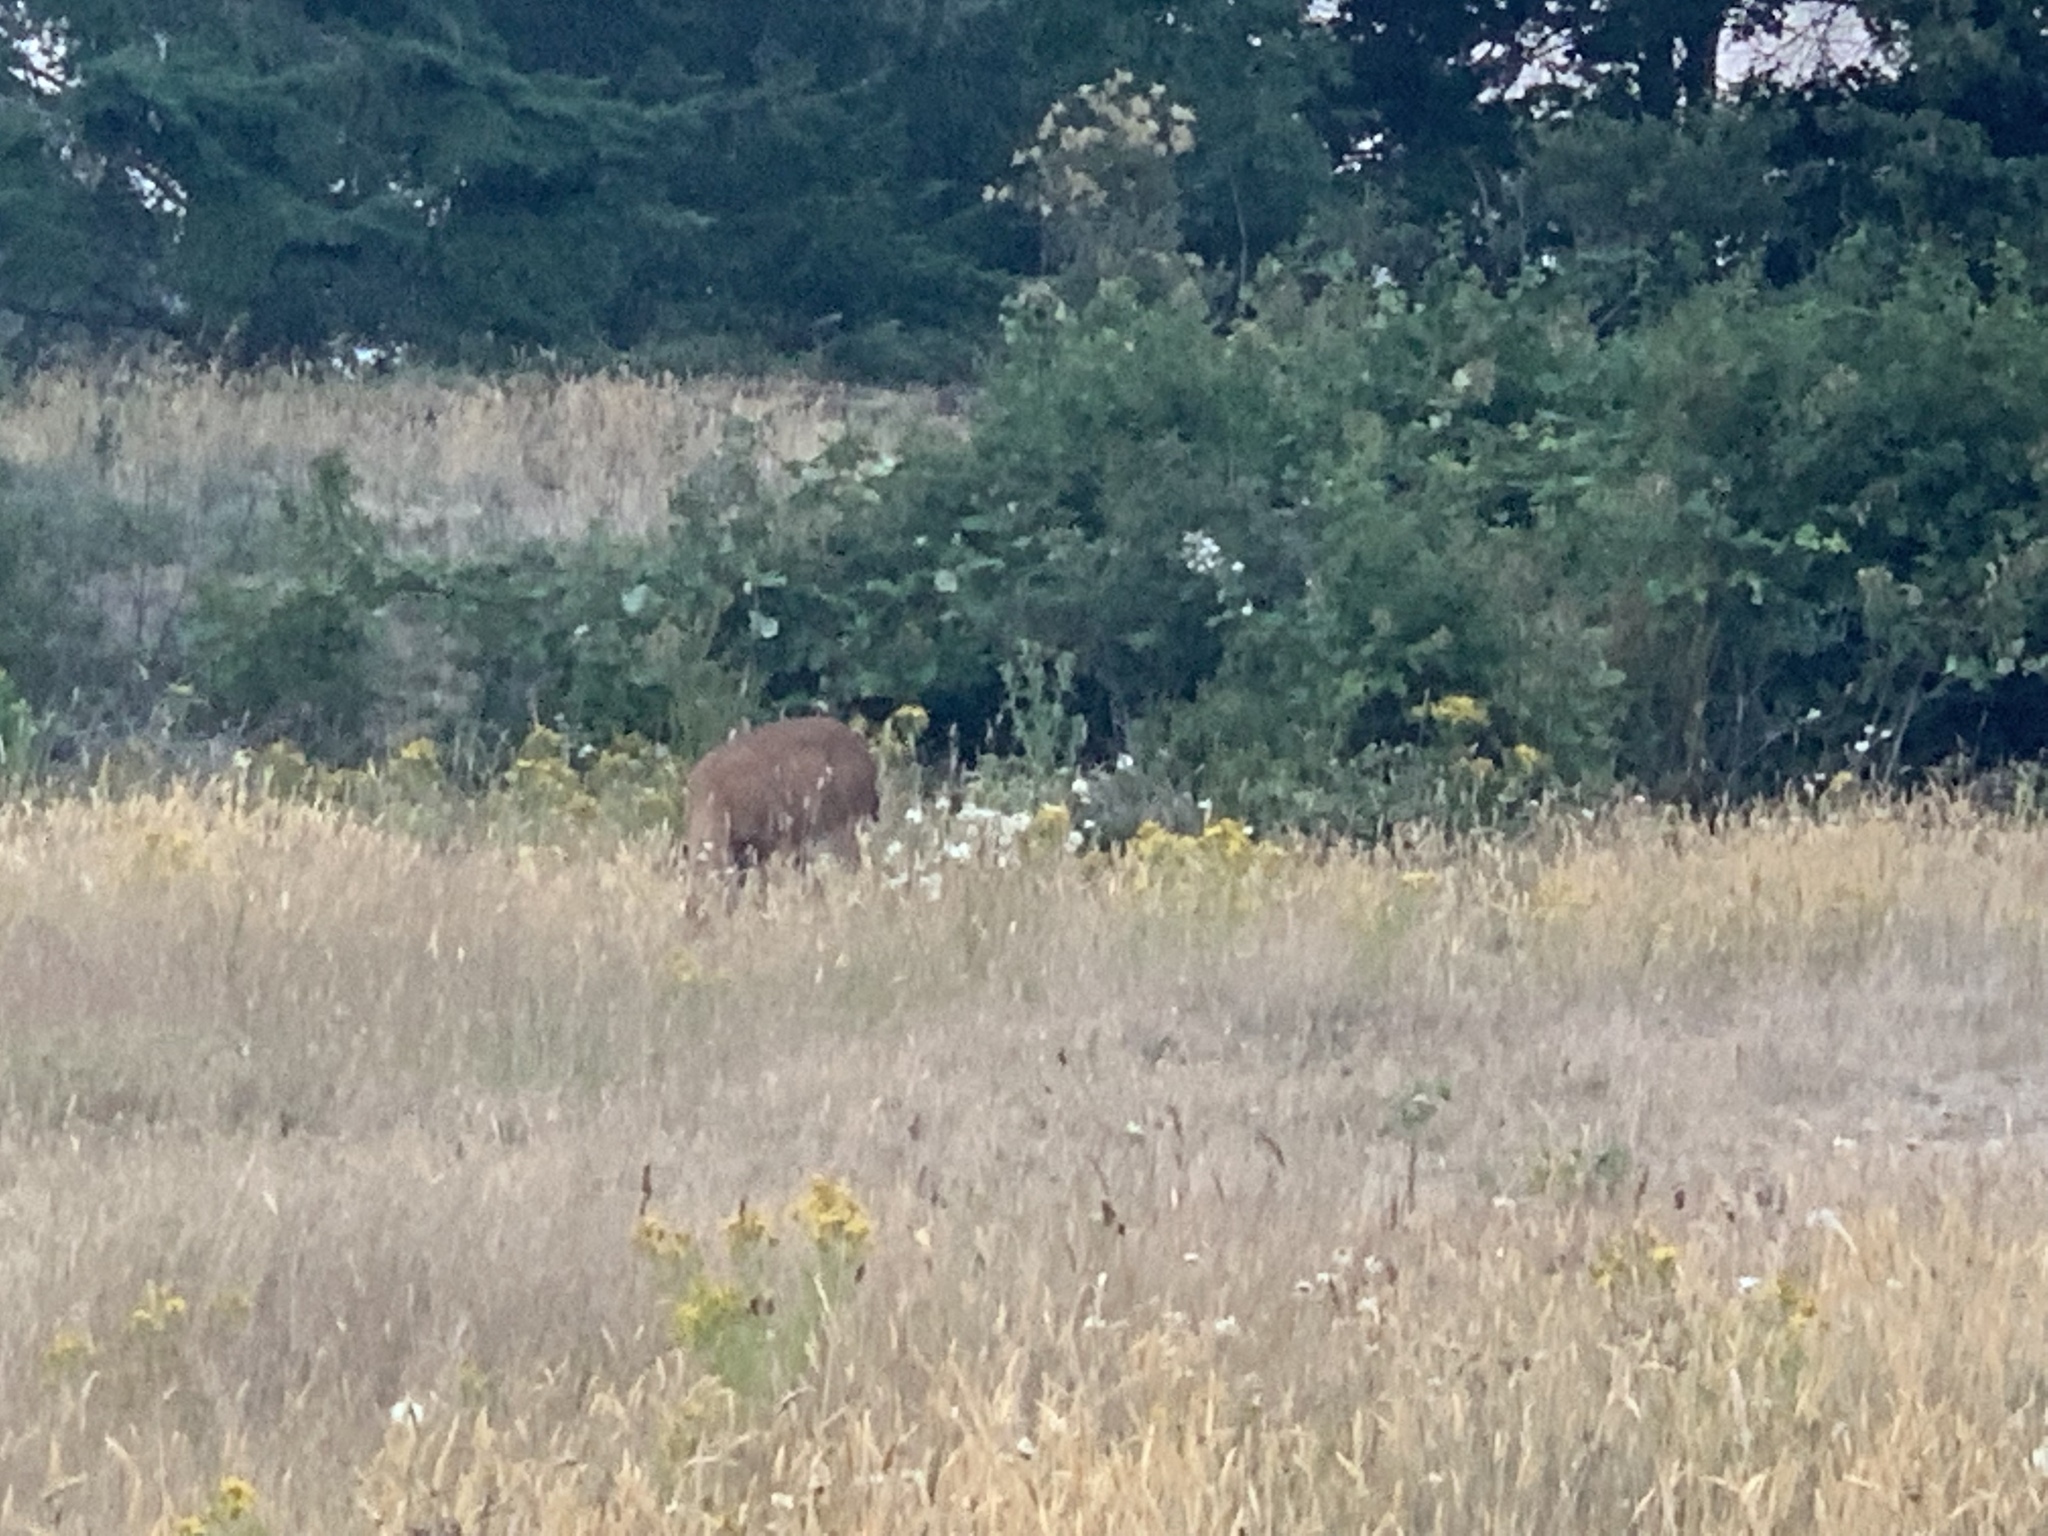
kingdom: Animalia
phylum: Chordata
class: Mammalia
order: Artiodactyla
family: Cervidae
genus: Odocoileus
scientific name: Odocoileus hemionus
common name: Mule deer
